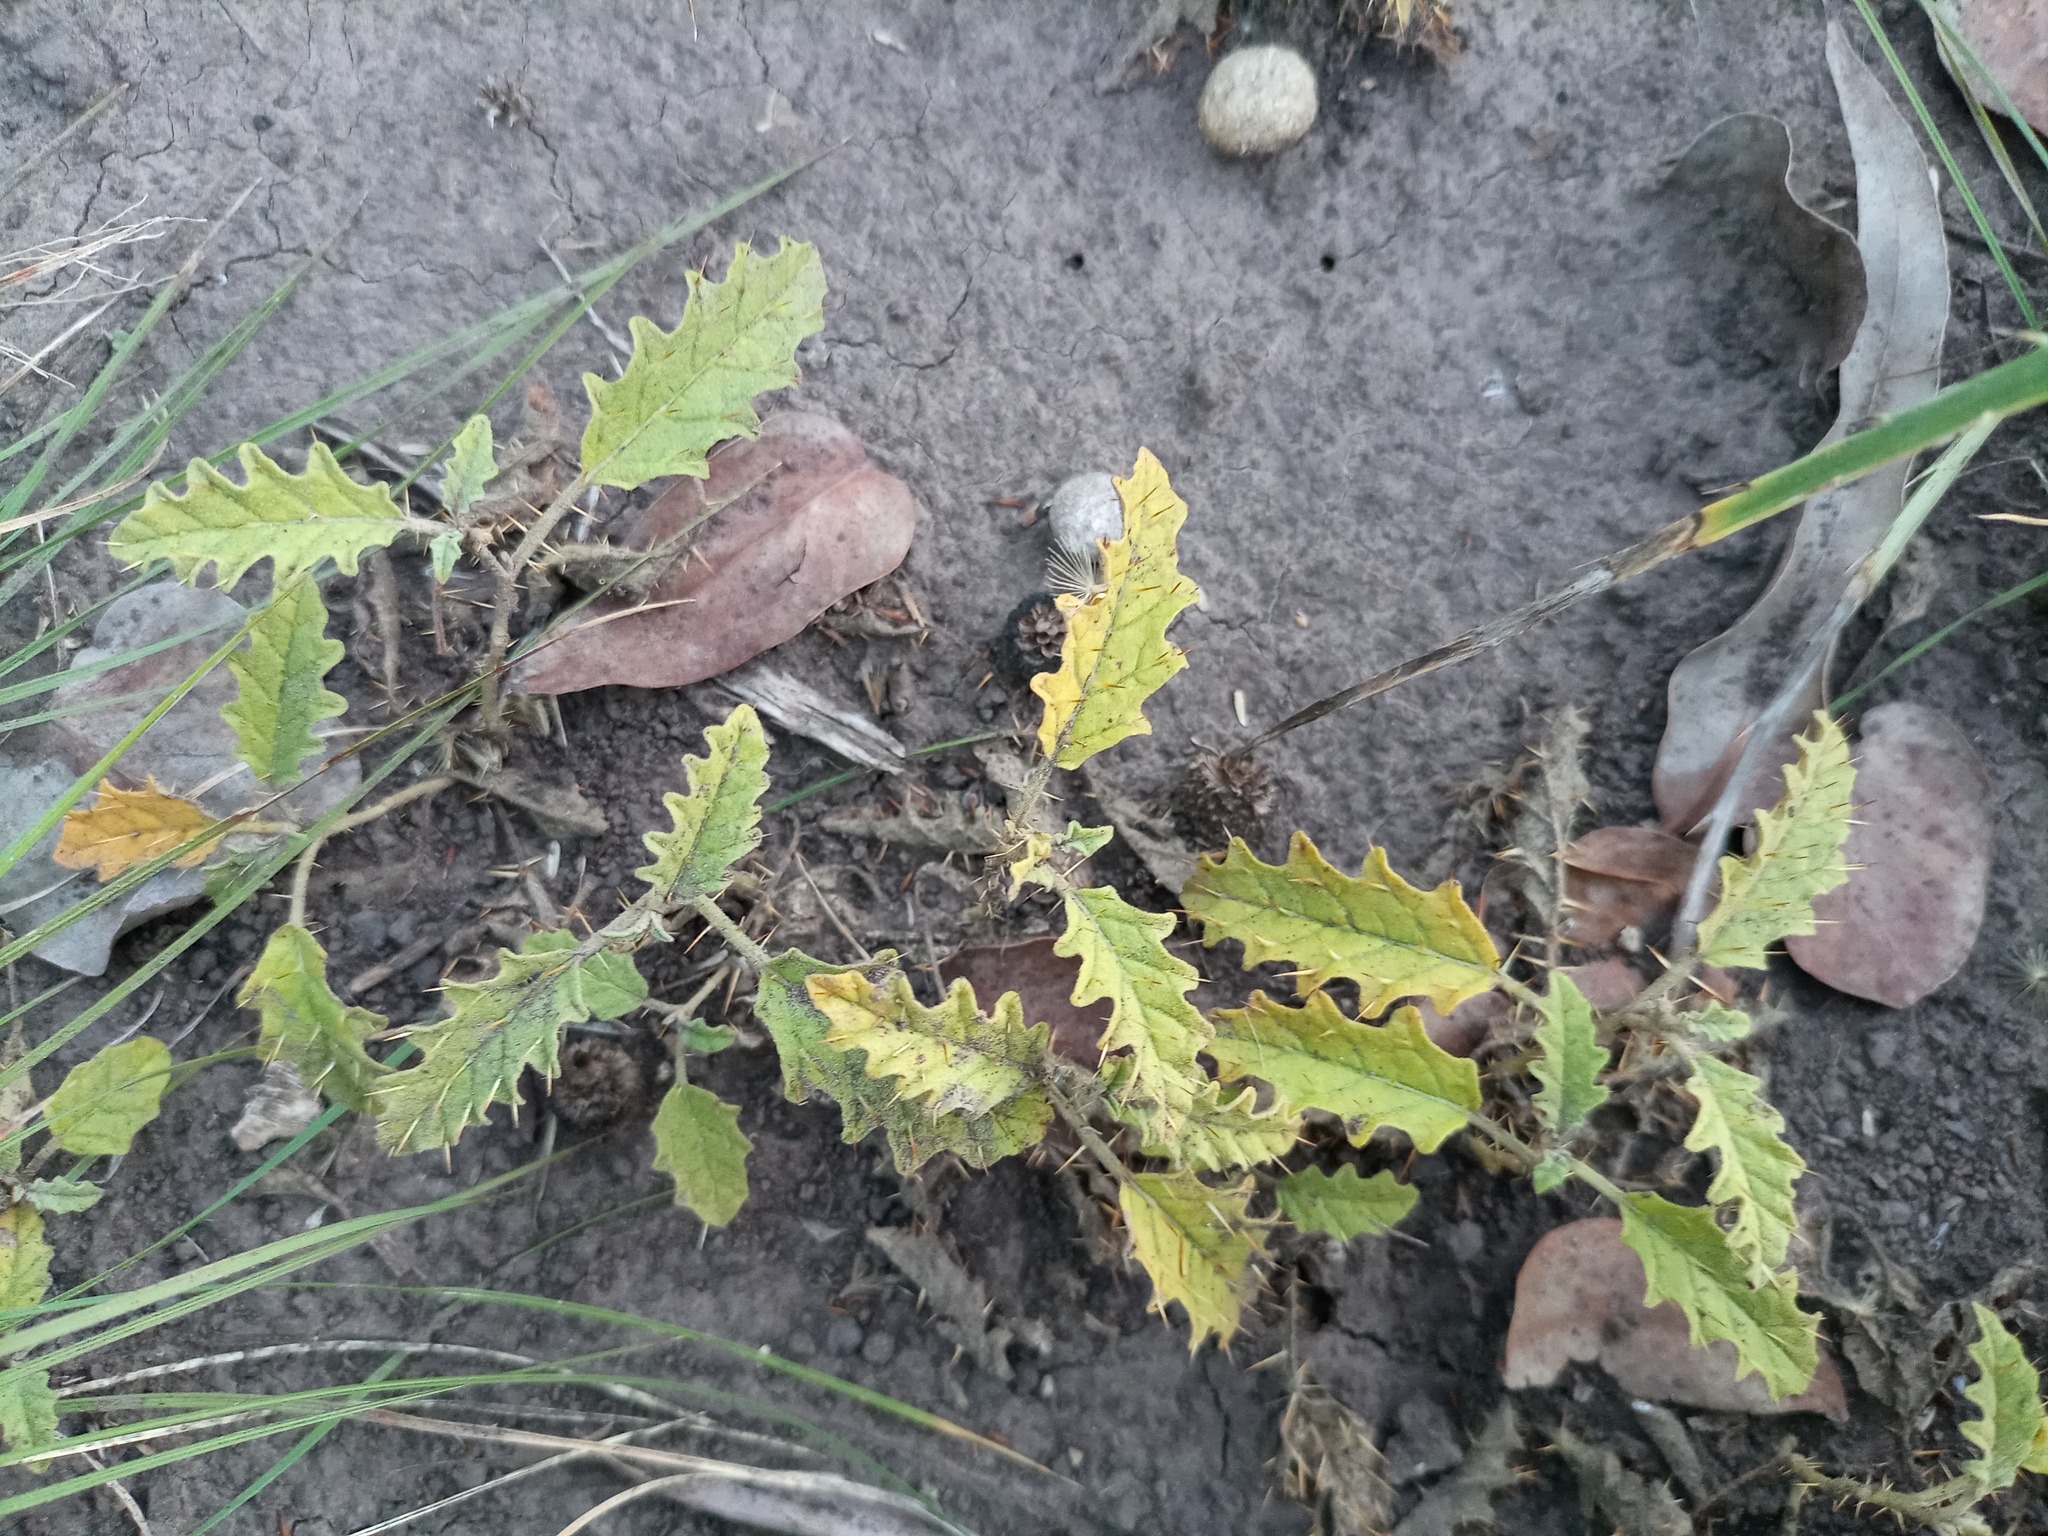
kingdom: Plantae
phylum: Tracheophyta
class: Magnoliopsida
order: Solanales
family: Solanaceae
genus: Solanum
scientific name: Solanum juvenale
